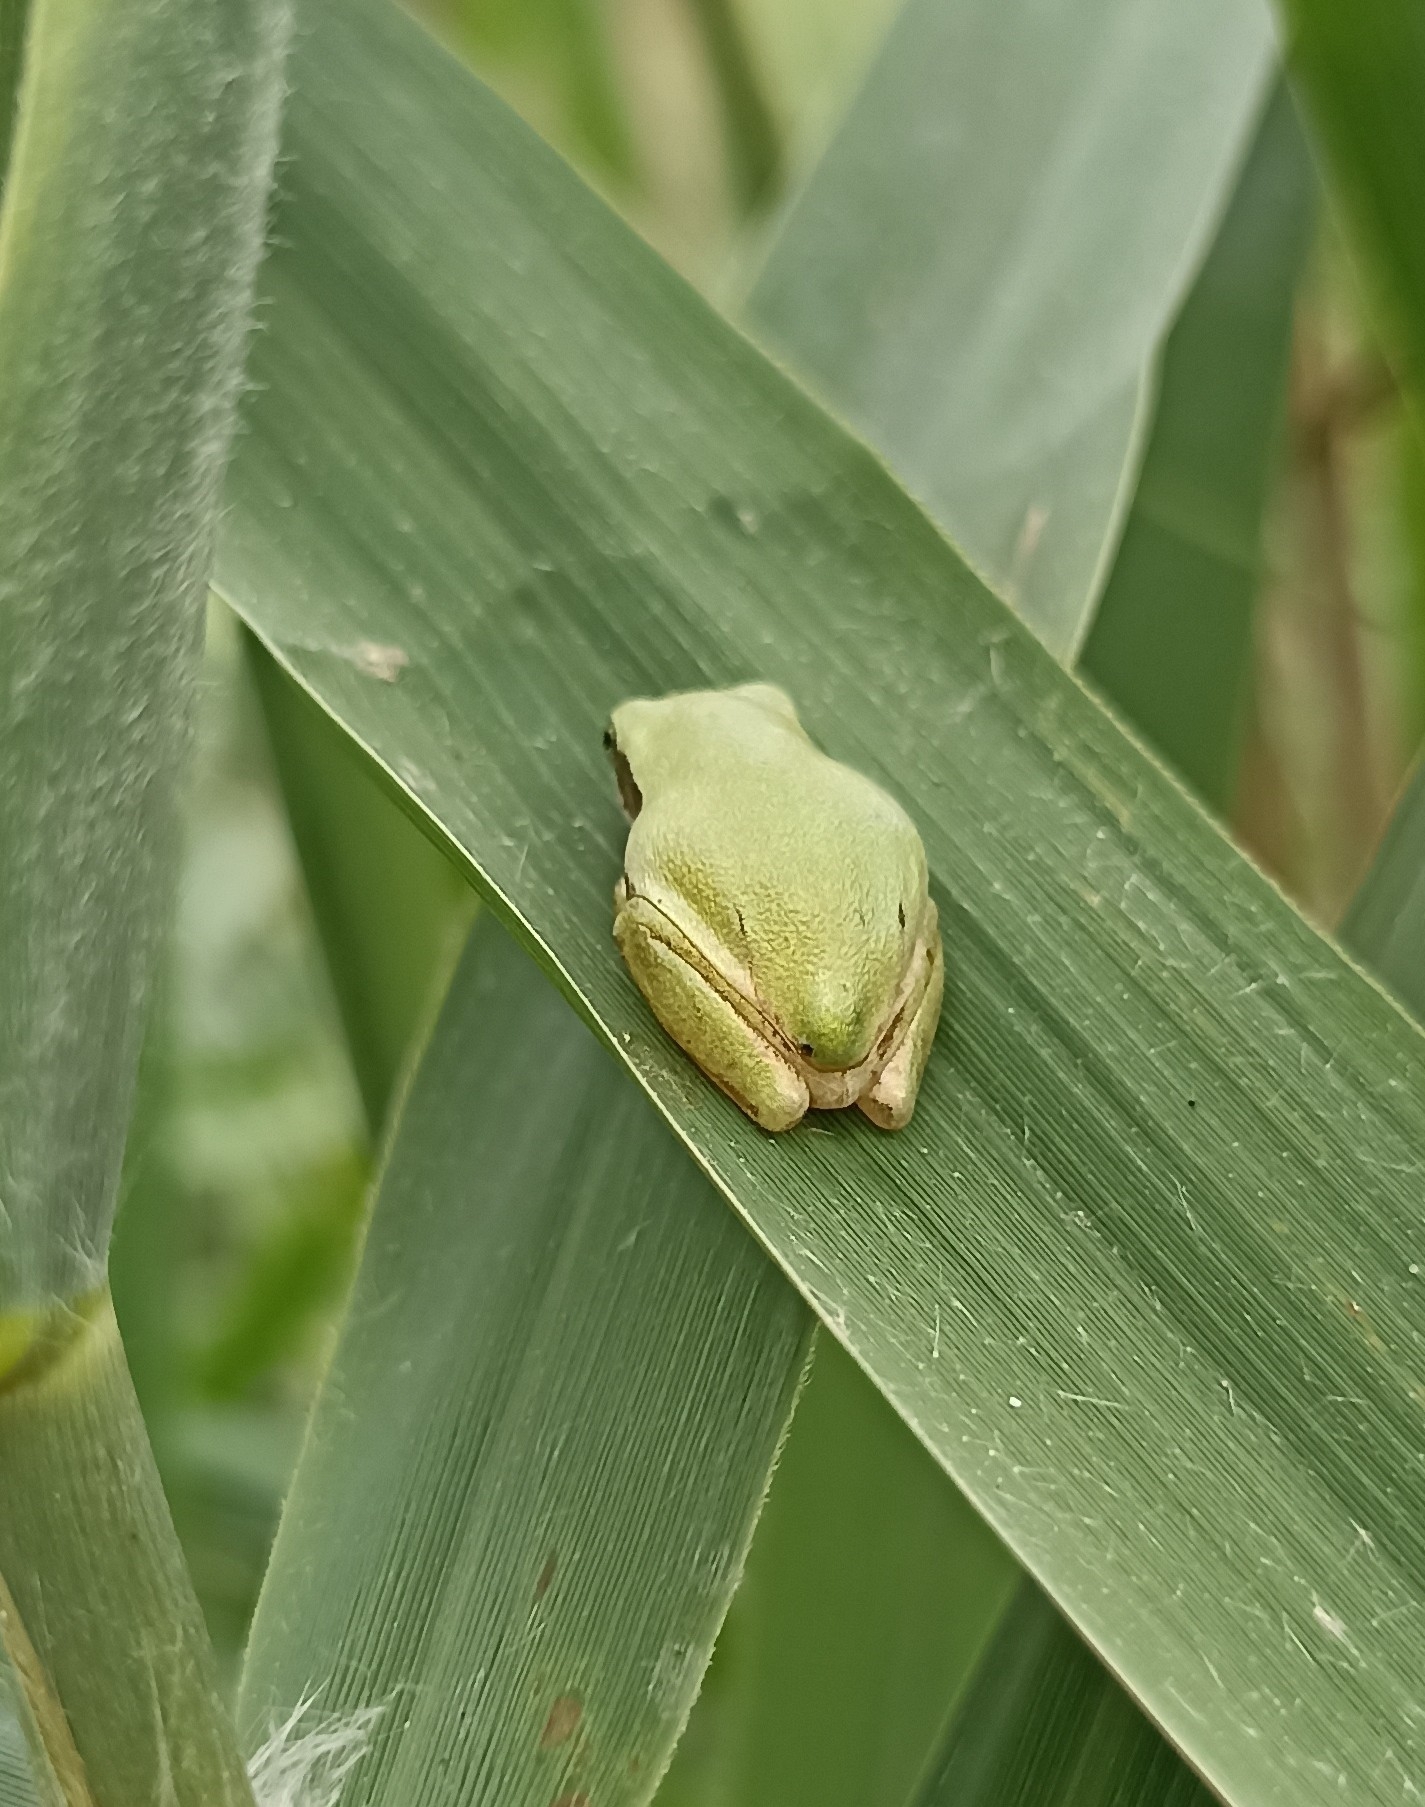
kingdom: Animalia
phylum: Chordata
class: Amphibia
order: Anura
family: Hylidae
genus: Hyla
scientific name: Hyla meridionalis
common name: Stripeless tree frog
